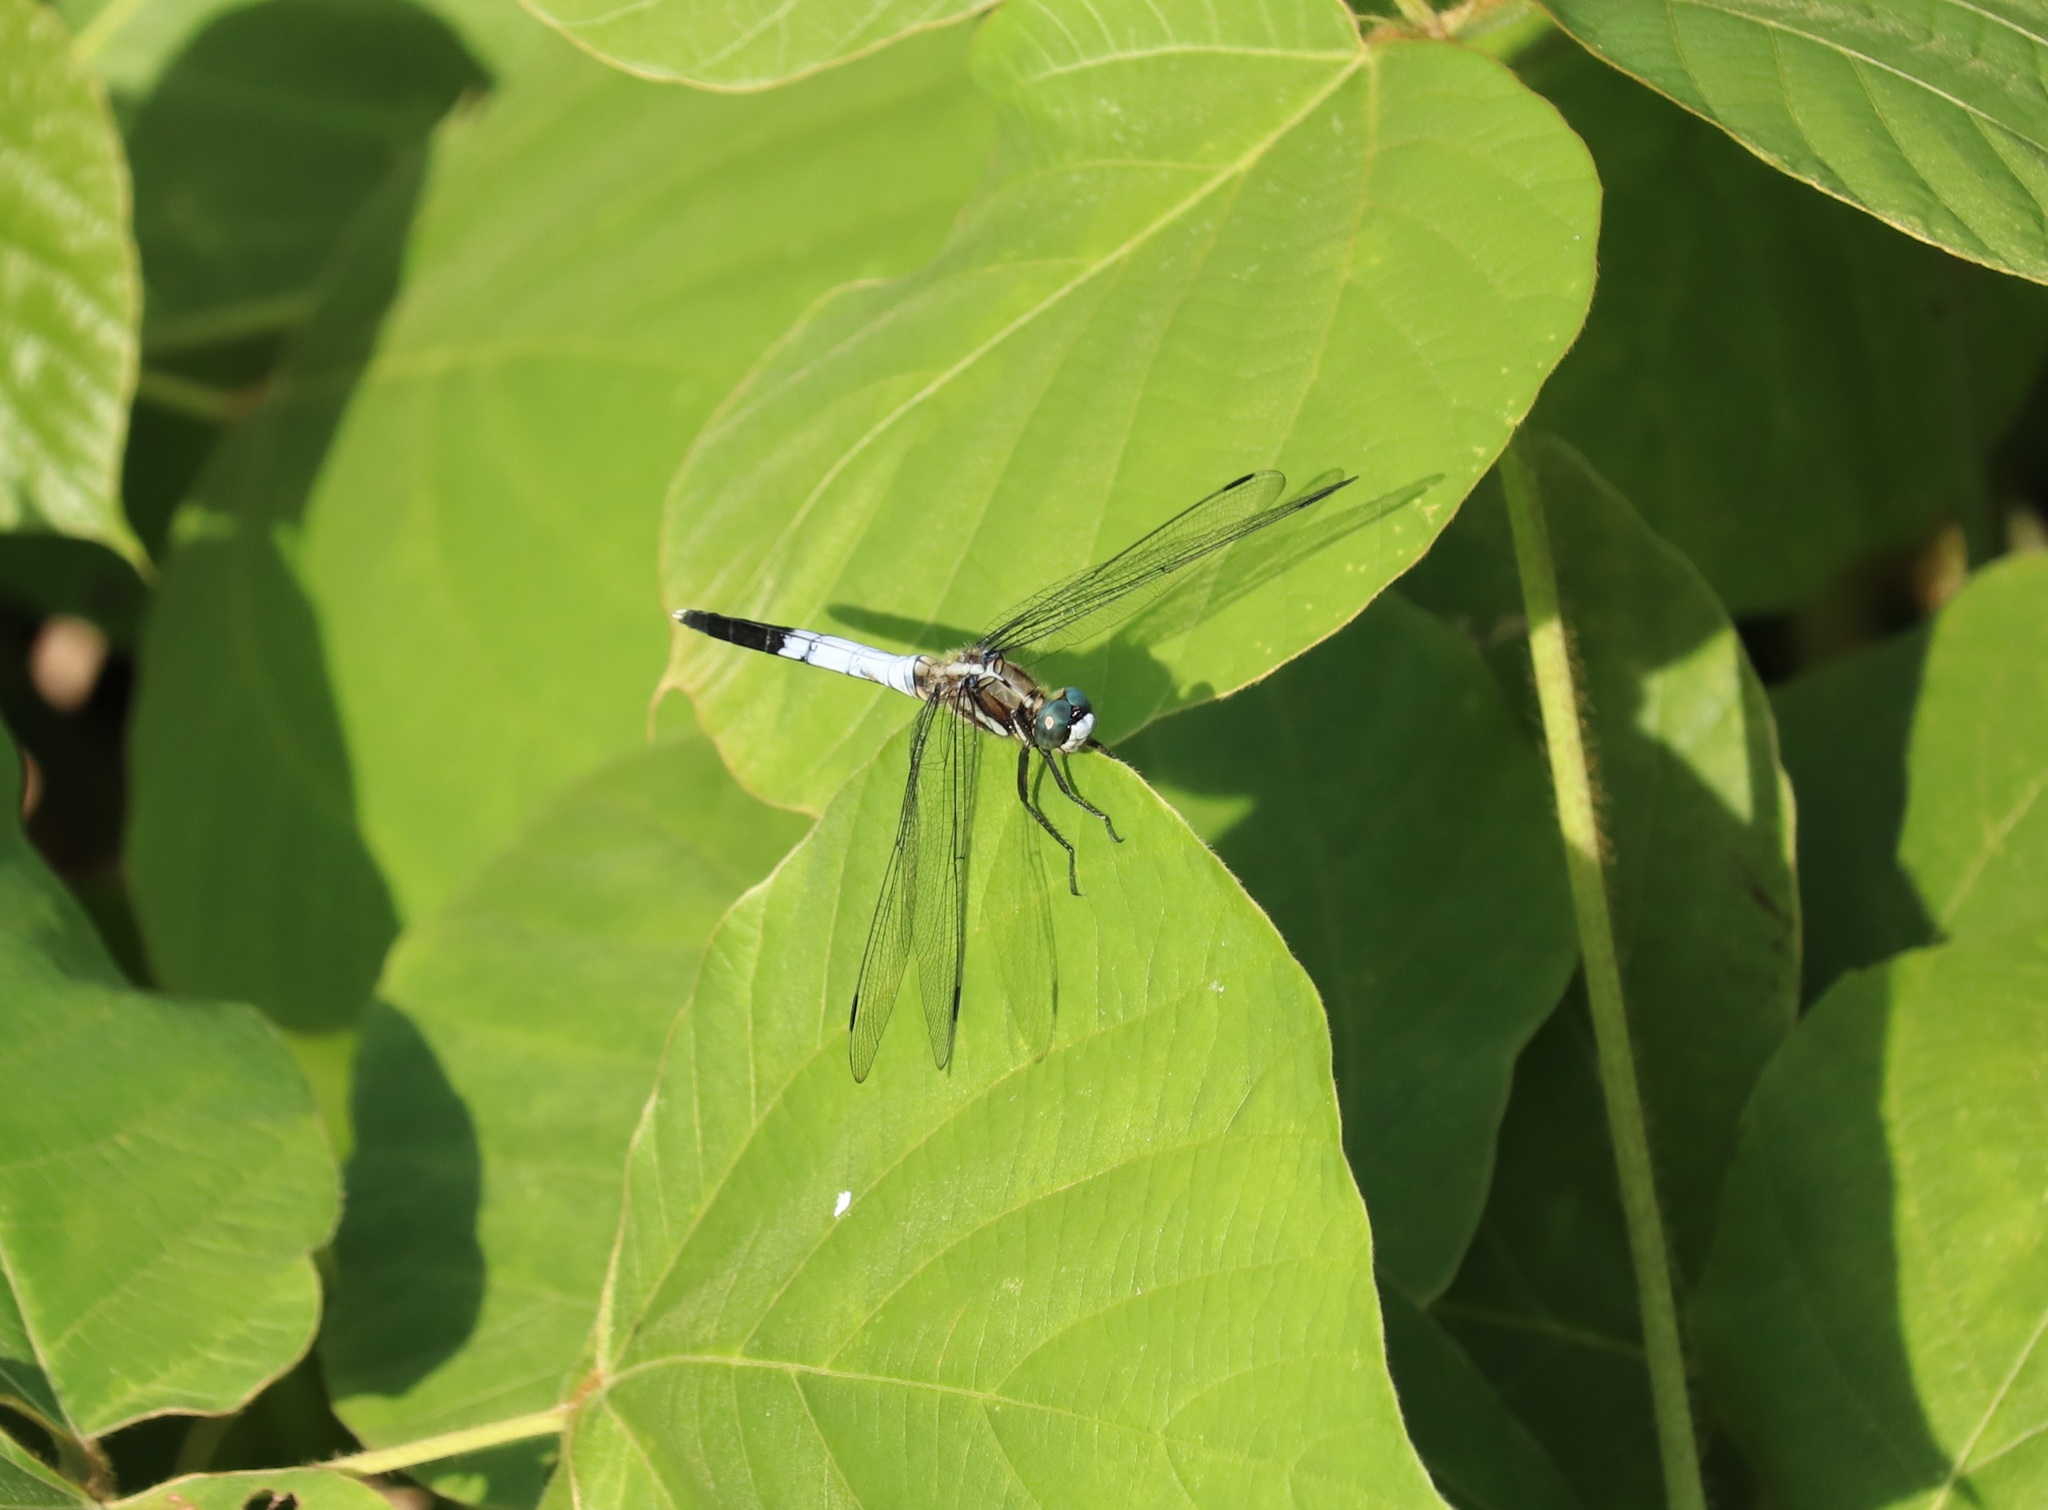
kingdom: Animalia
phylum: Arthropoda
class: Insecta
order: Odonata
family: Libellulidae
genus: Orthetrum
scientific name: Orthetrum albistylum
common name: White-tailed skimmer
